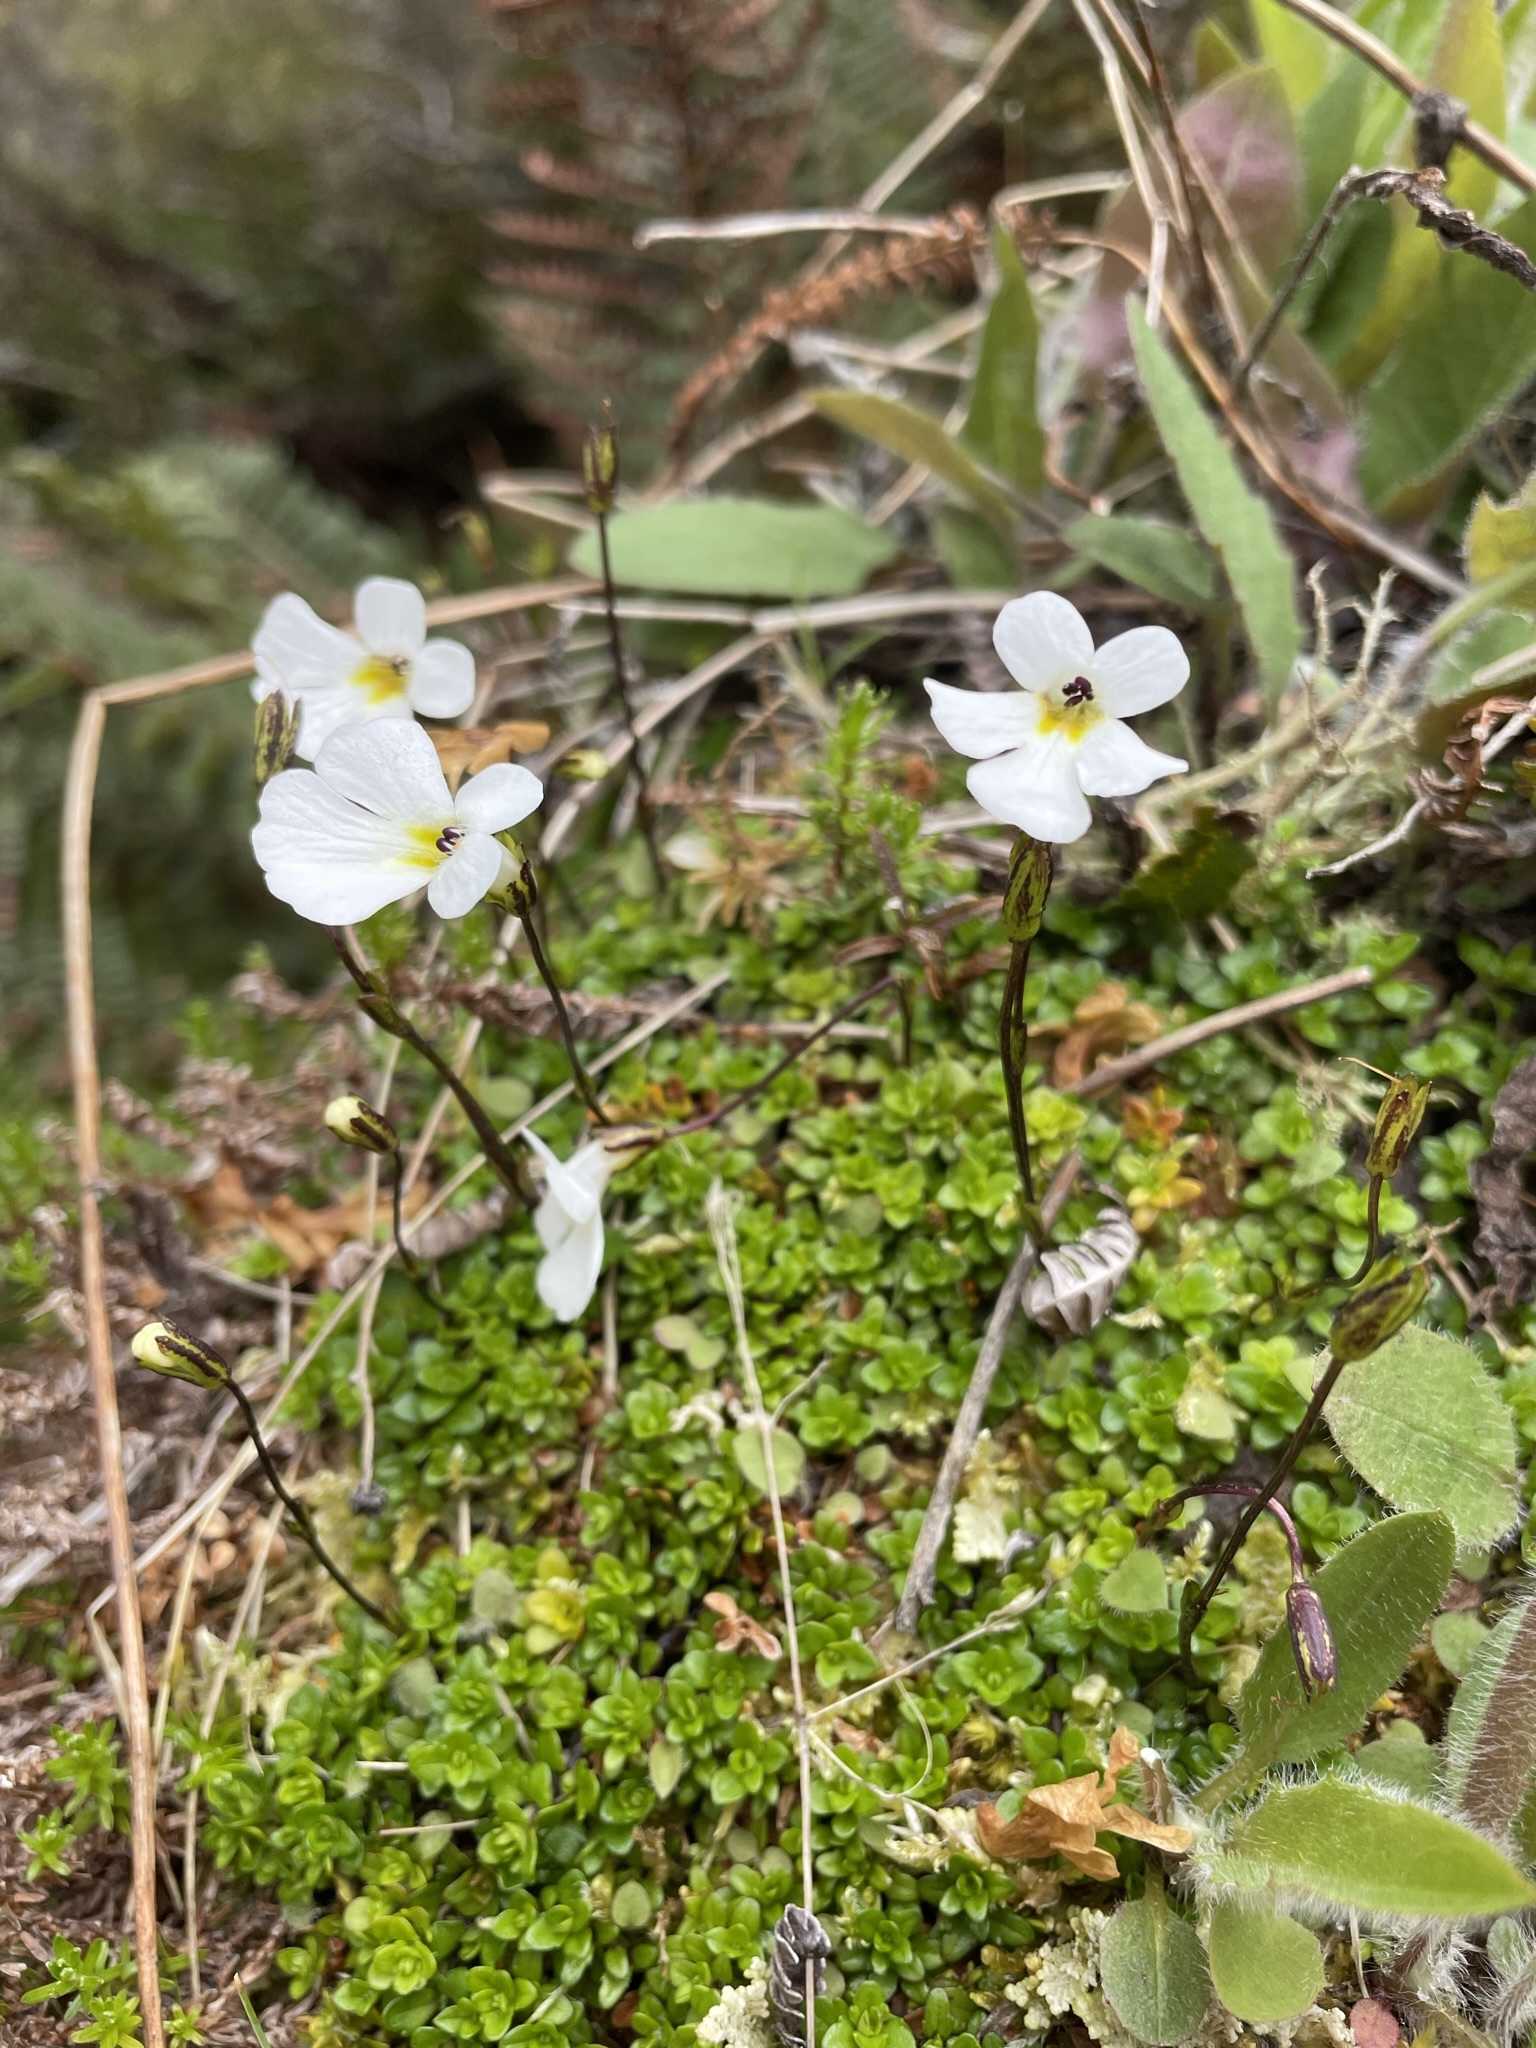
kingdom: Plantae
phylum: Tracheophyta
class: Magnoliopsida
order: Lamiales
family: Plantaginaceae
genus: Ourisia
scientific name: Ourisia caespitosa
